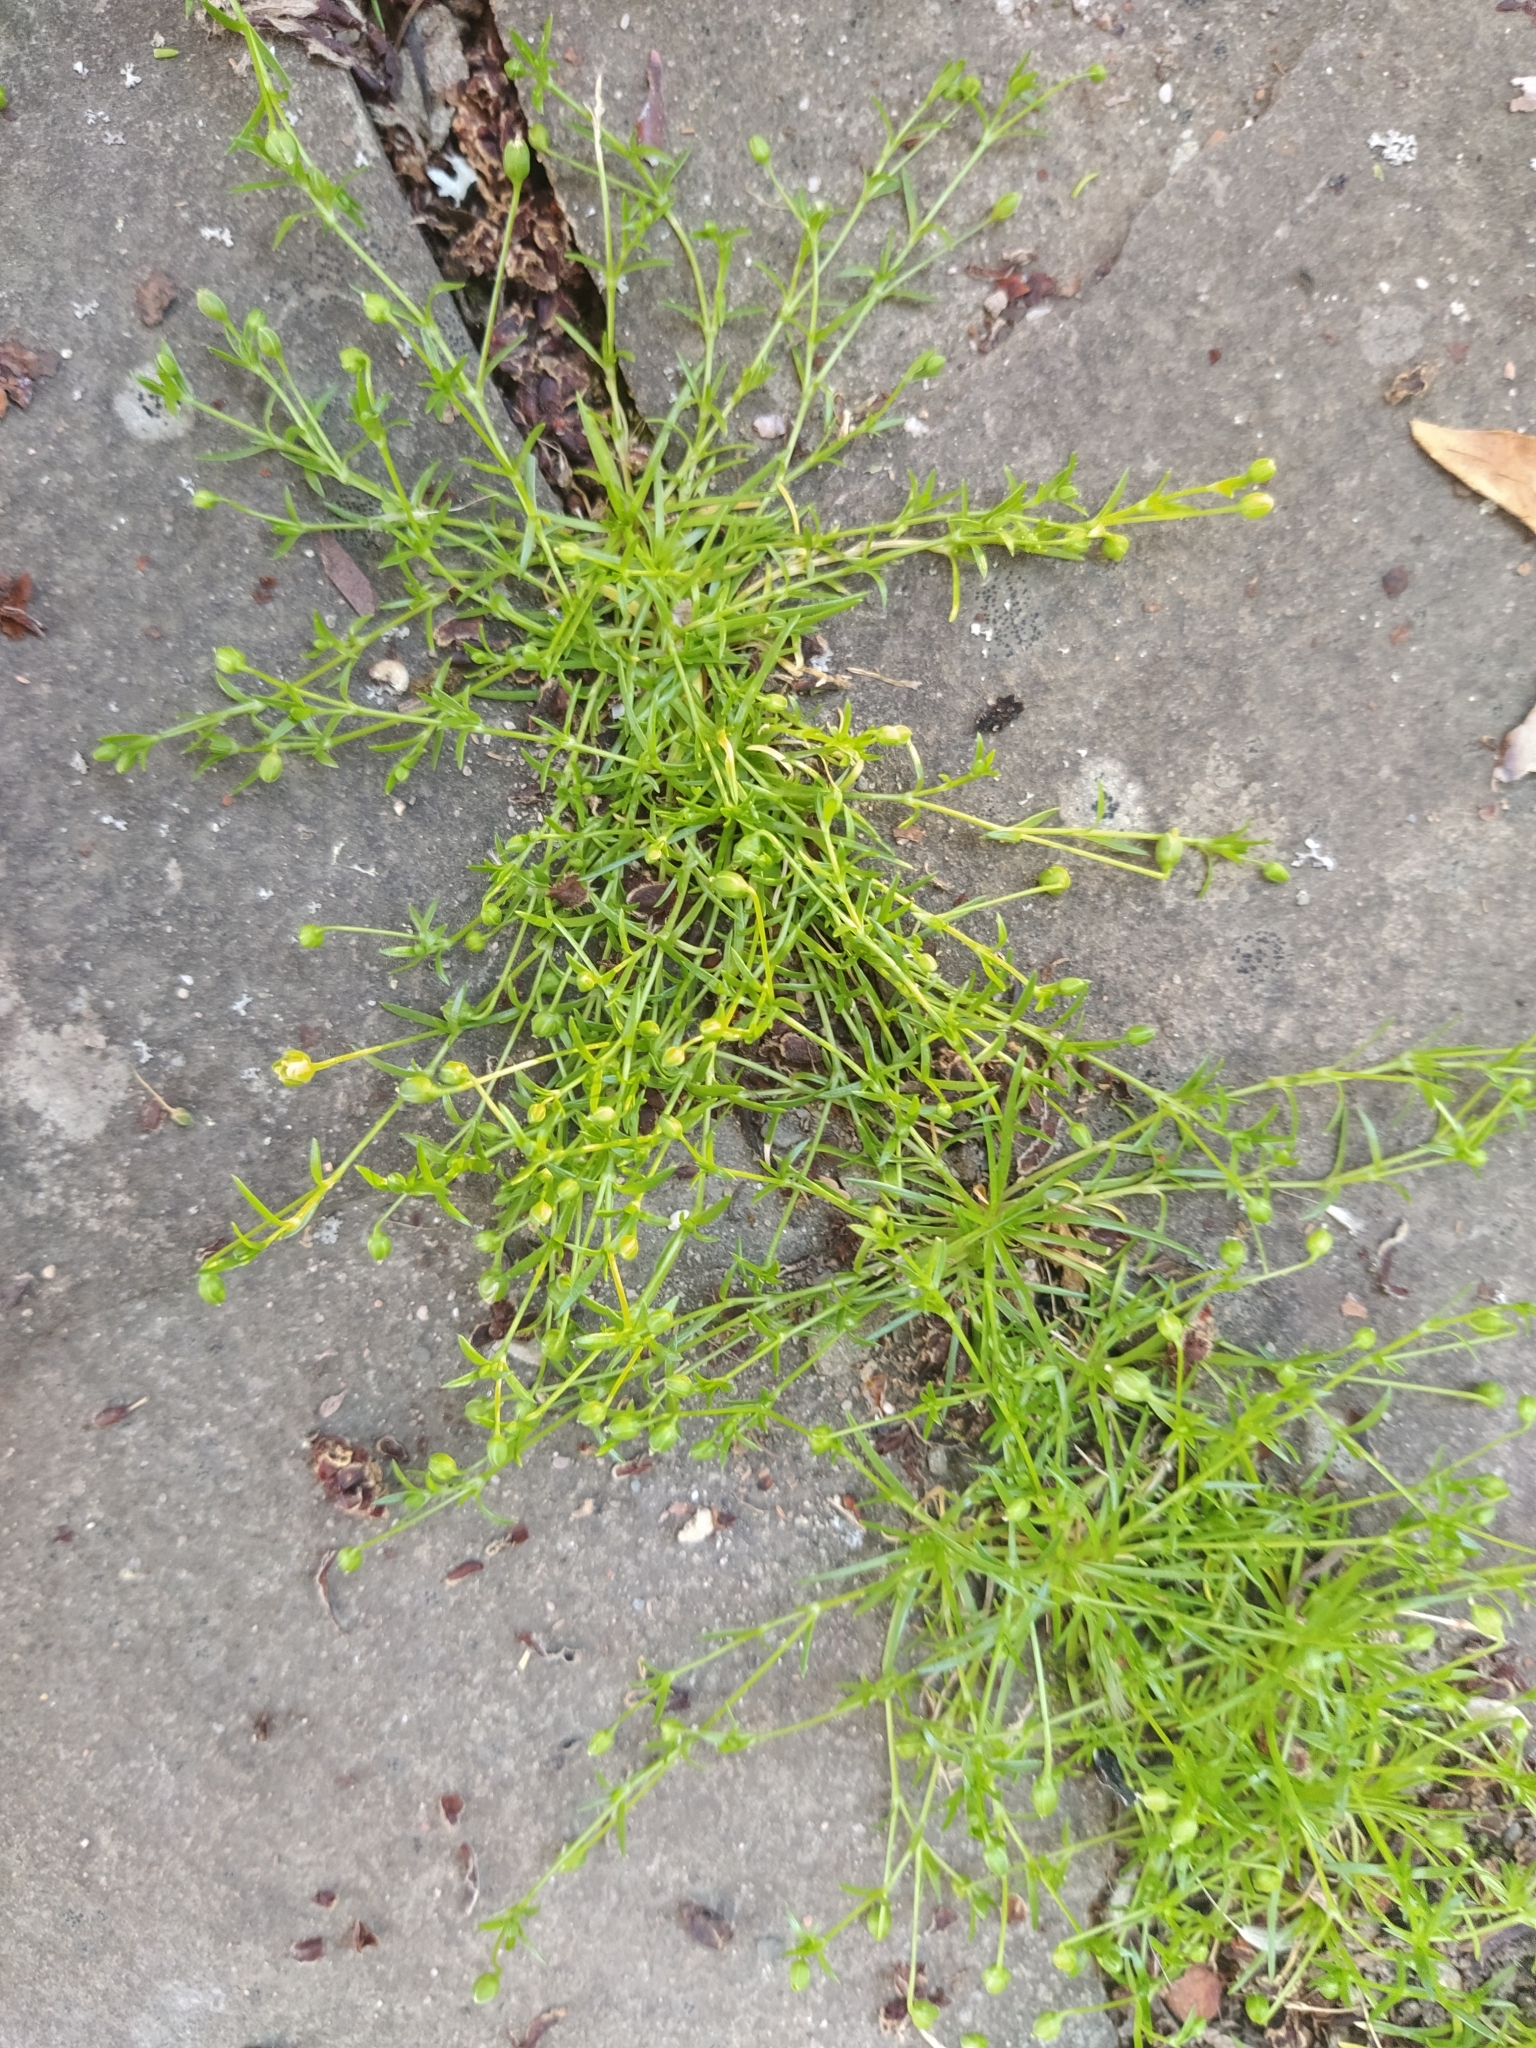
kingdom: Plantae
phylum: Tracheophyta
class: Magnoliopsida
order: Caryophyllales
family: Caryophyllaceae
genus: Sagina
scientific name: Sagina procumbens
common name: Procumbent pearlwort
